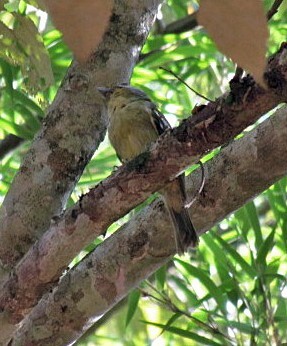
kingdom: Animalia
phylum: Chordata
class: Aves
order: Passeriformes
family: Cotingidae
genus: Piprites
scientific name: Piprites chloris
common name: Wing-barred piprites
